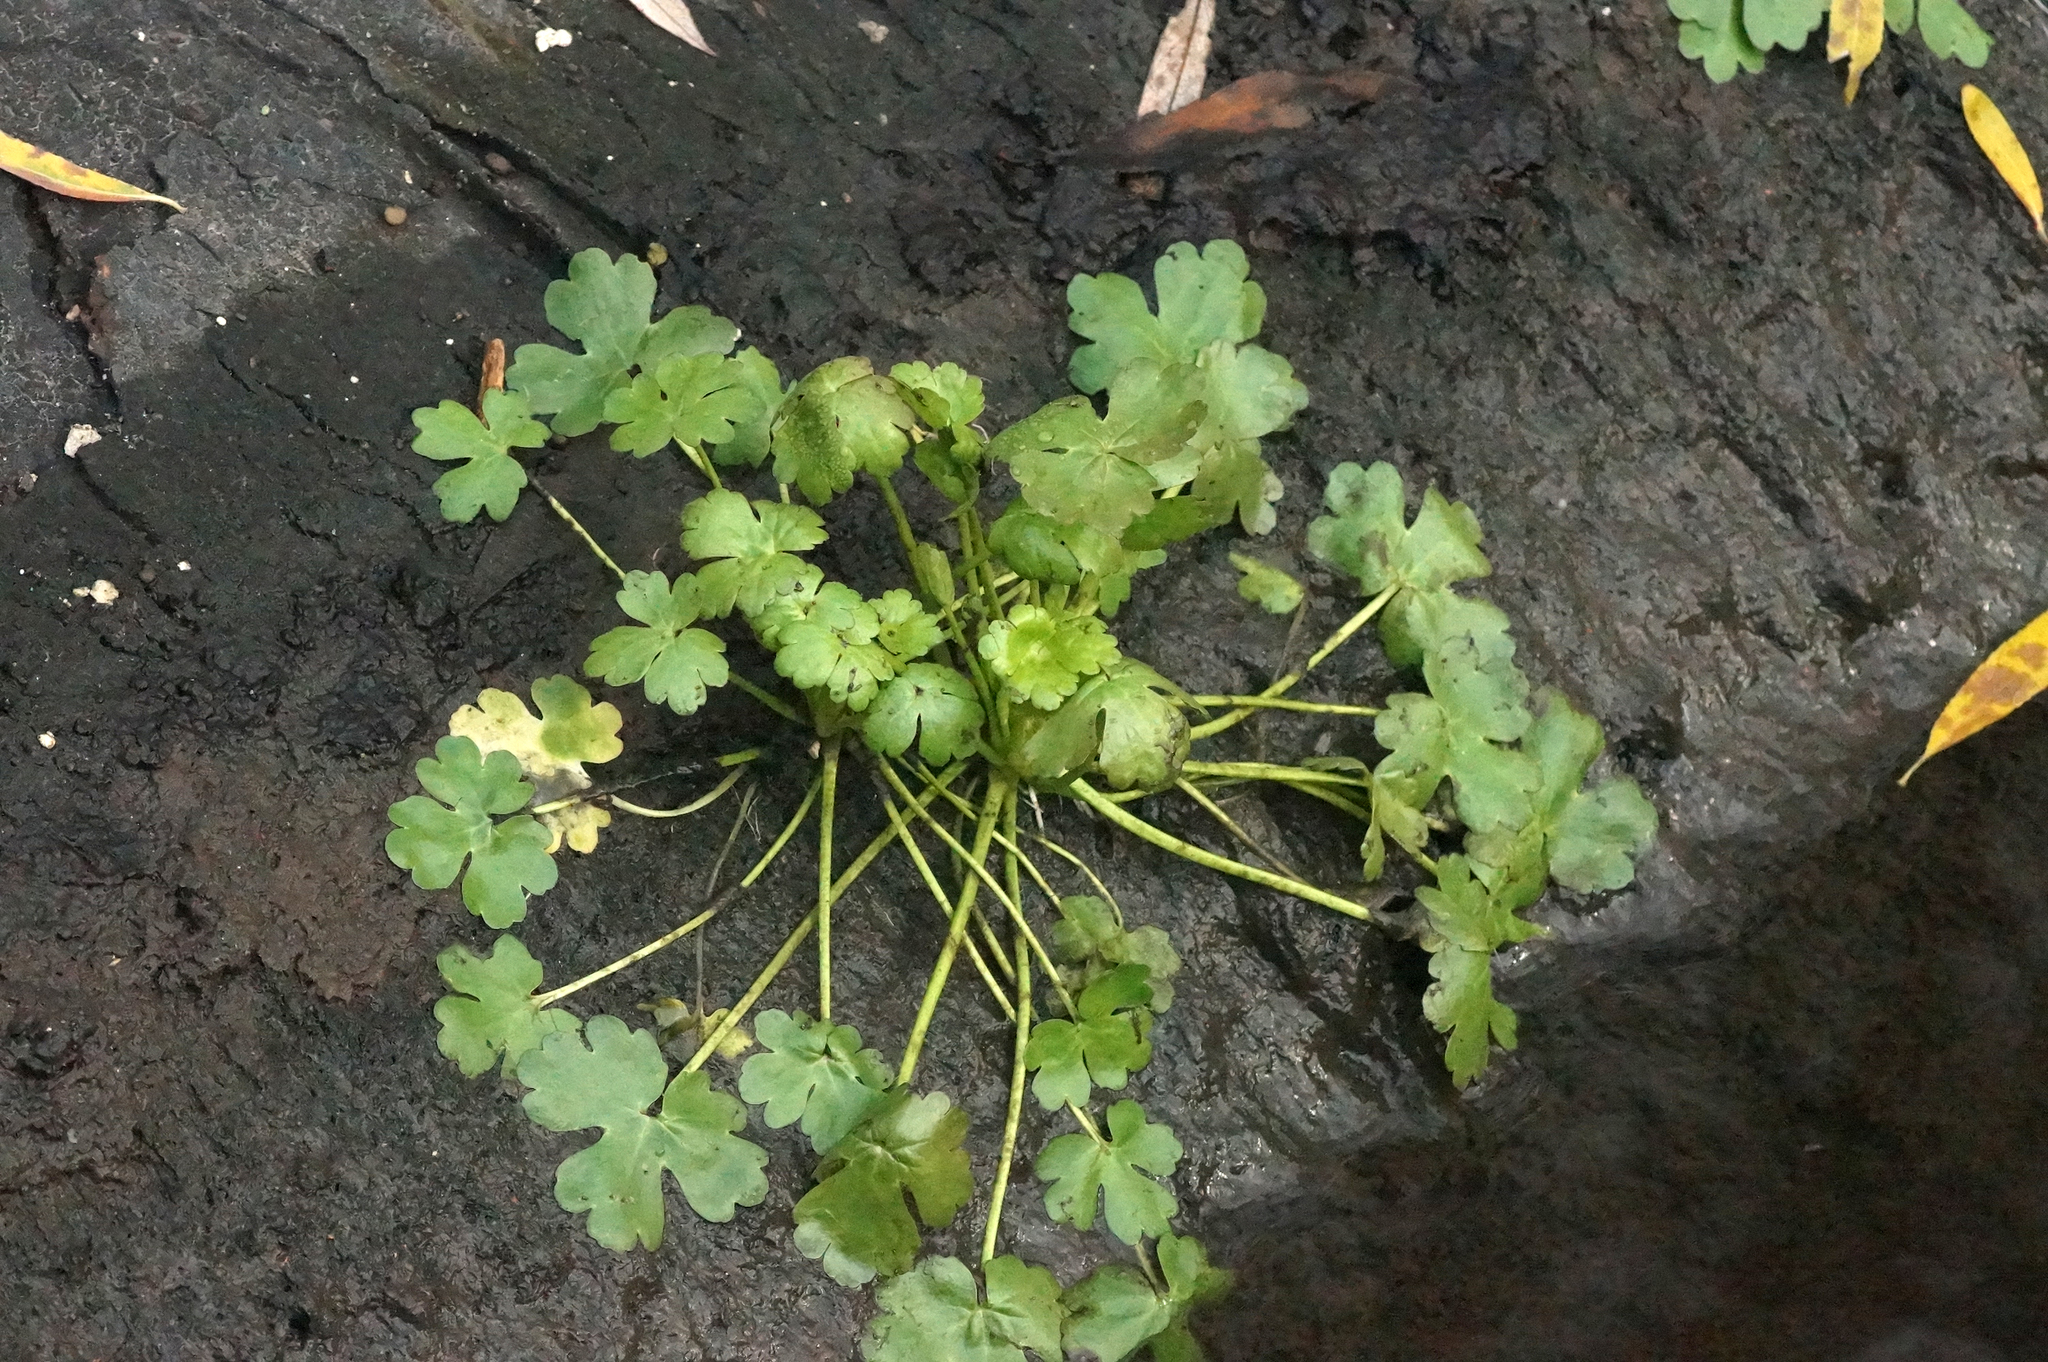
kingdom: Plantae
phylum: Tracheophyta
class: Magnoliopsida
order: Ranunculales
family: Ranunculaceae
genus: Ranunculus
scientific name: Ranunculus sceleratus
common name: Celery-leaved buttercup
